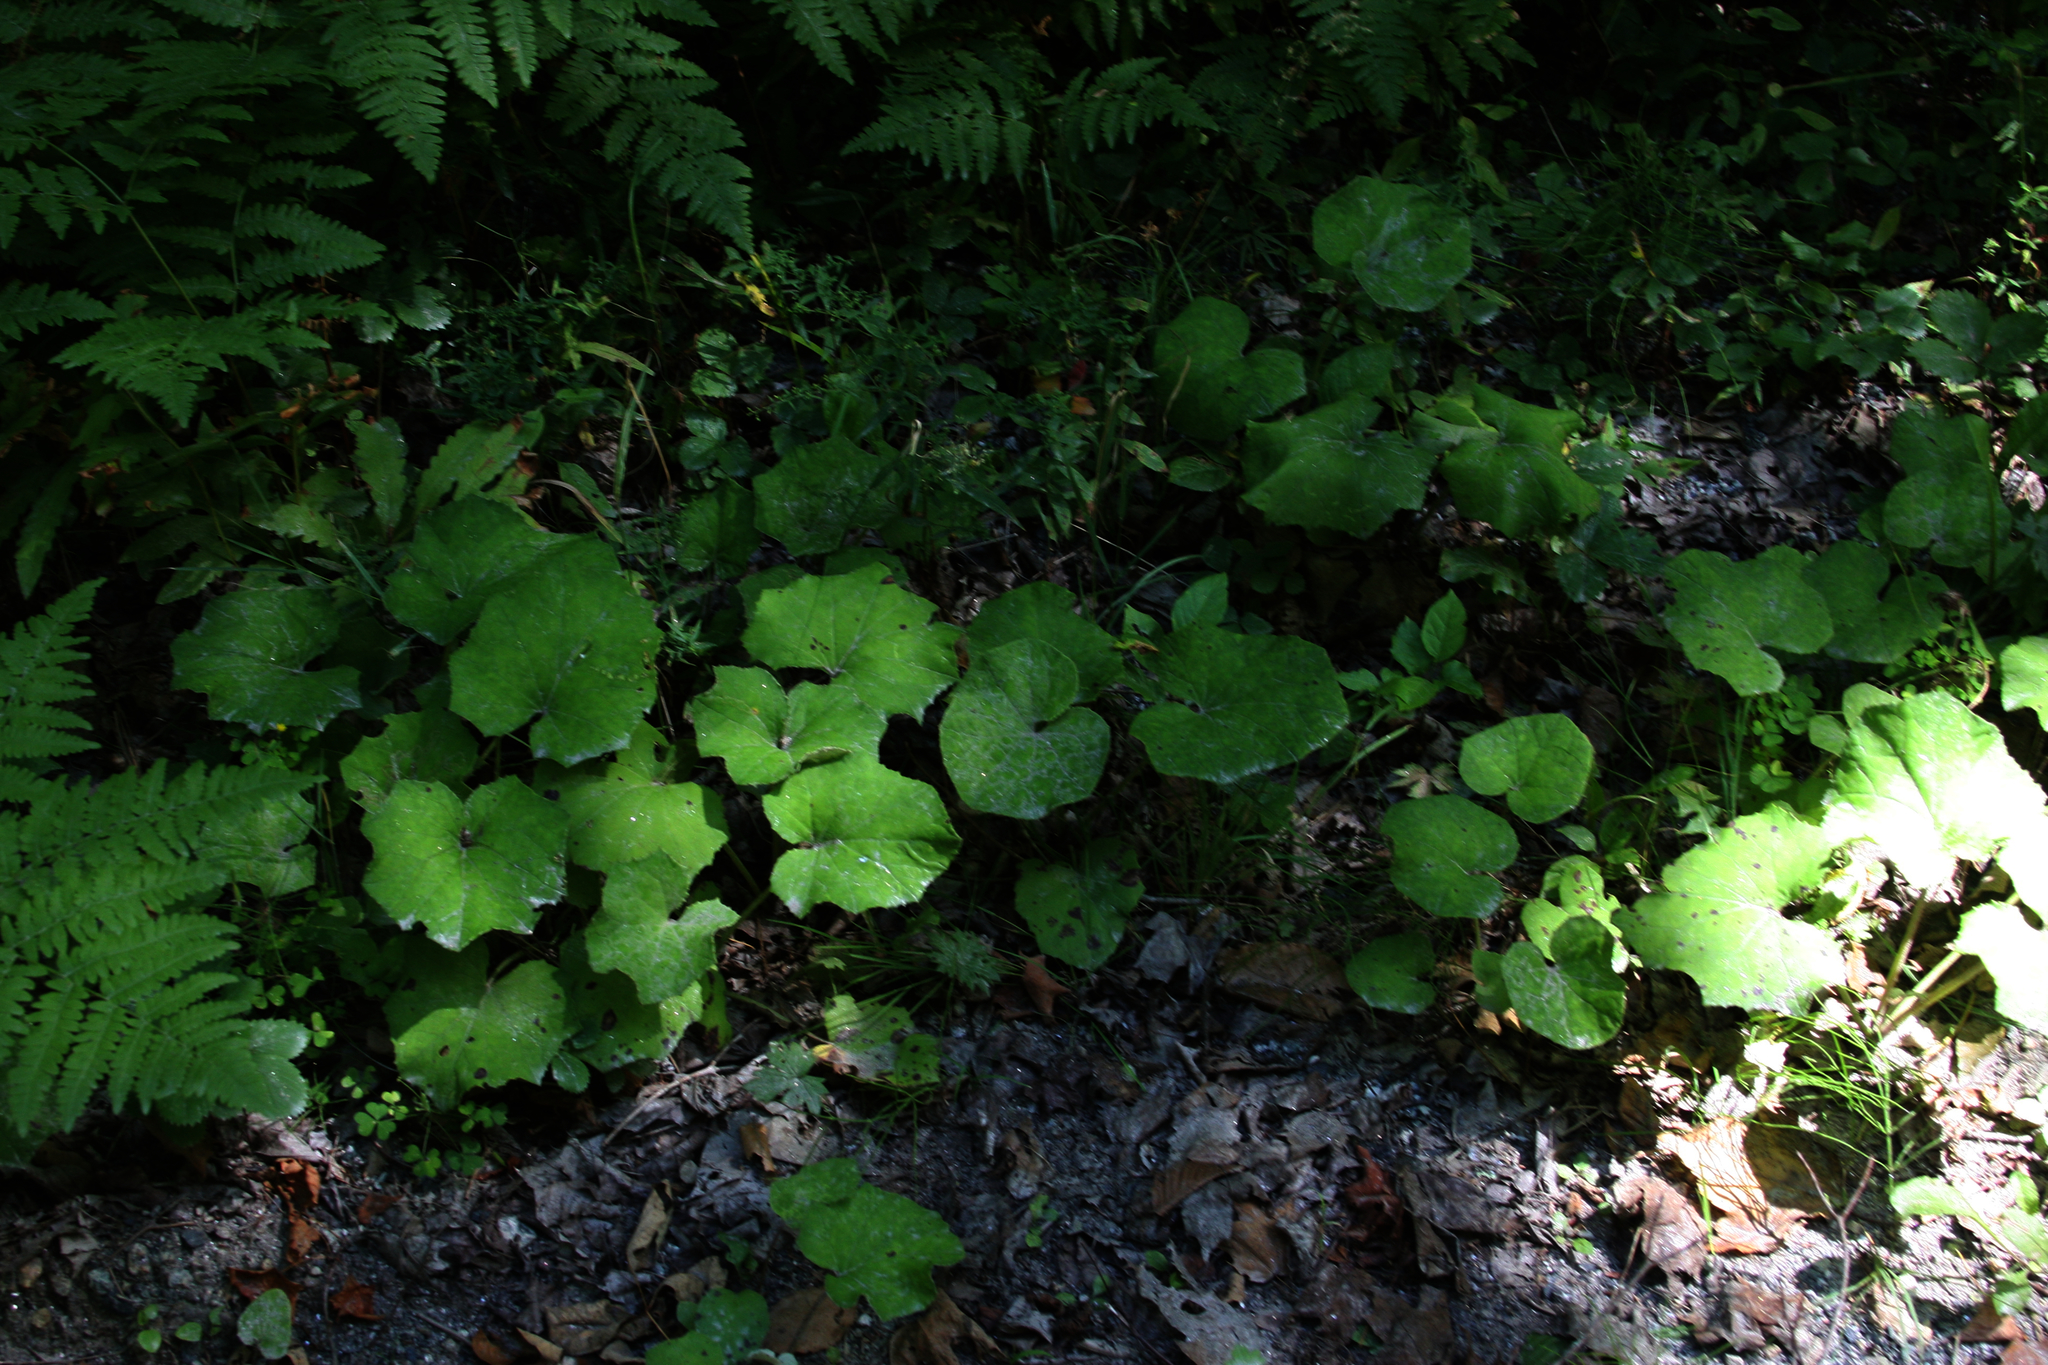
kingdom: Plantae
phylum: Tracheophyta
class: Magnoliopsida
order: Asterales
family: Asteraceae
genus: Tussilago
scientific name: Tussilago farfara
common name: Coltsfoot
